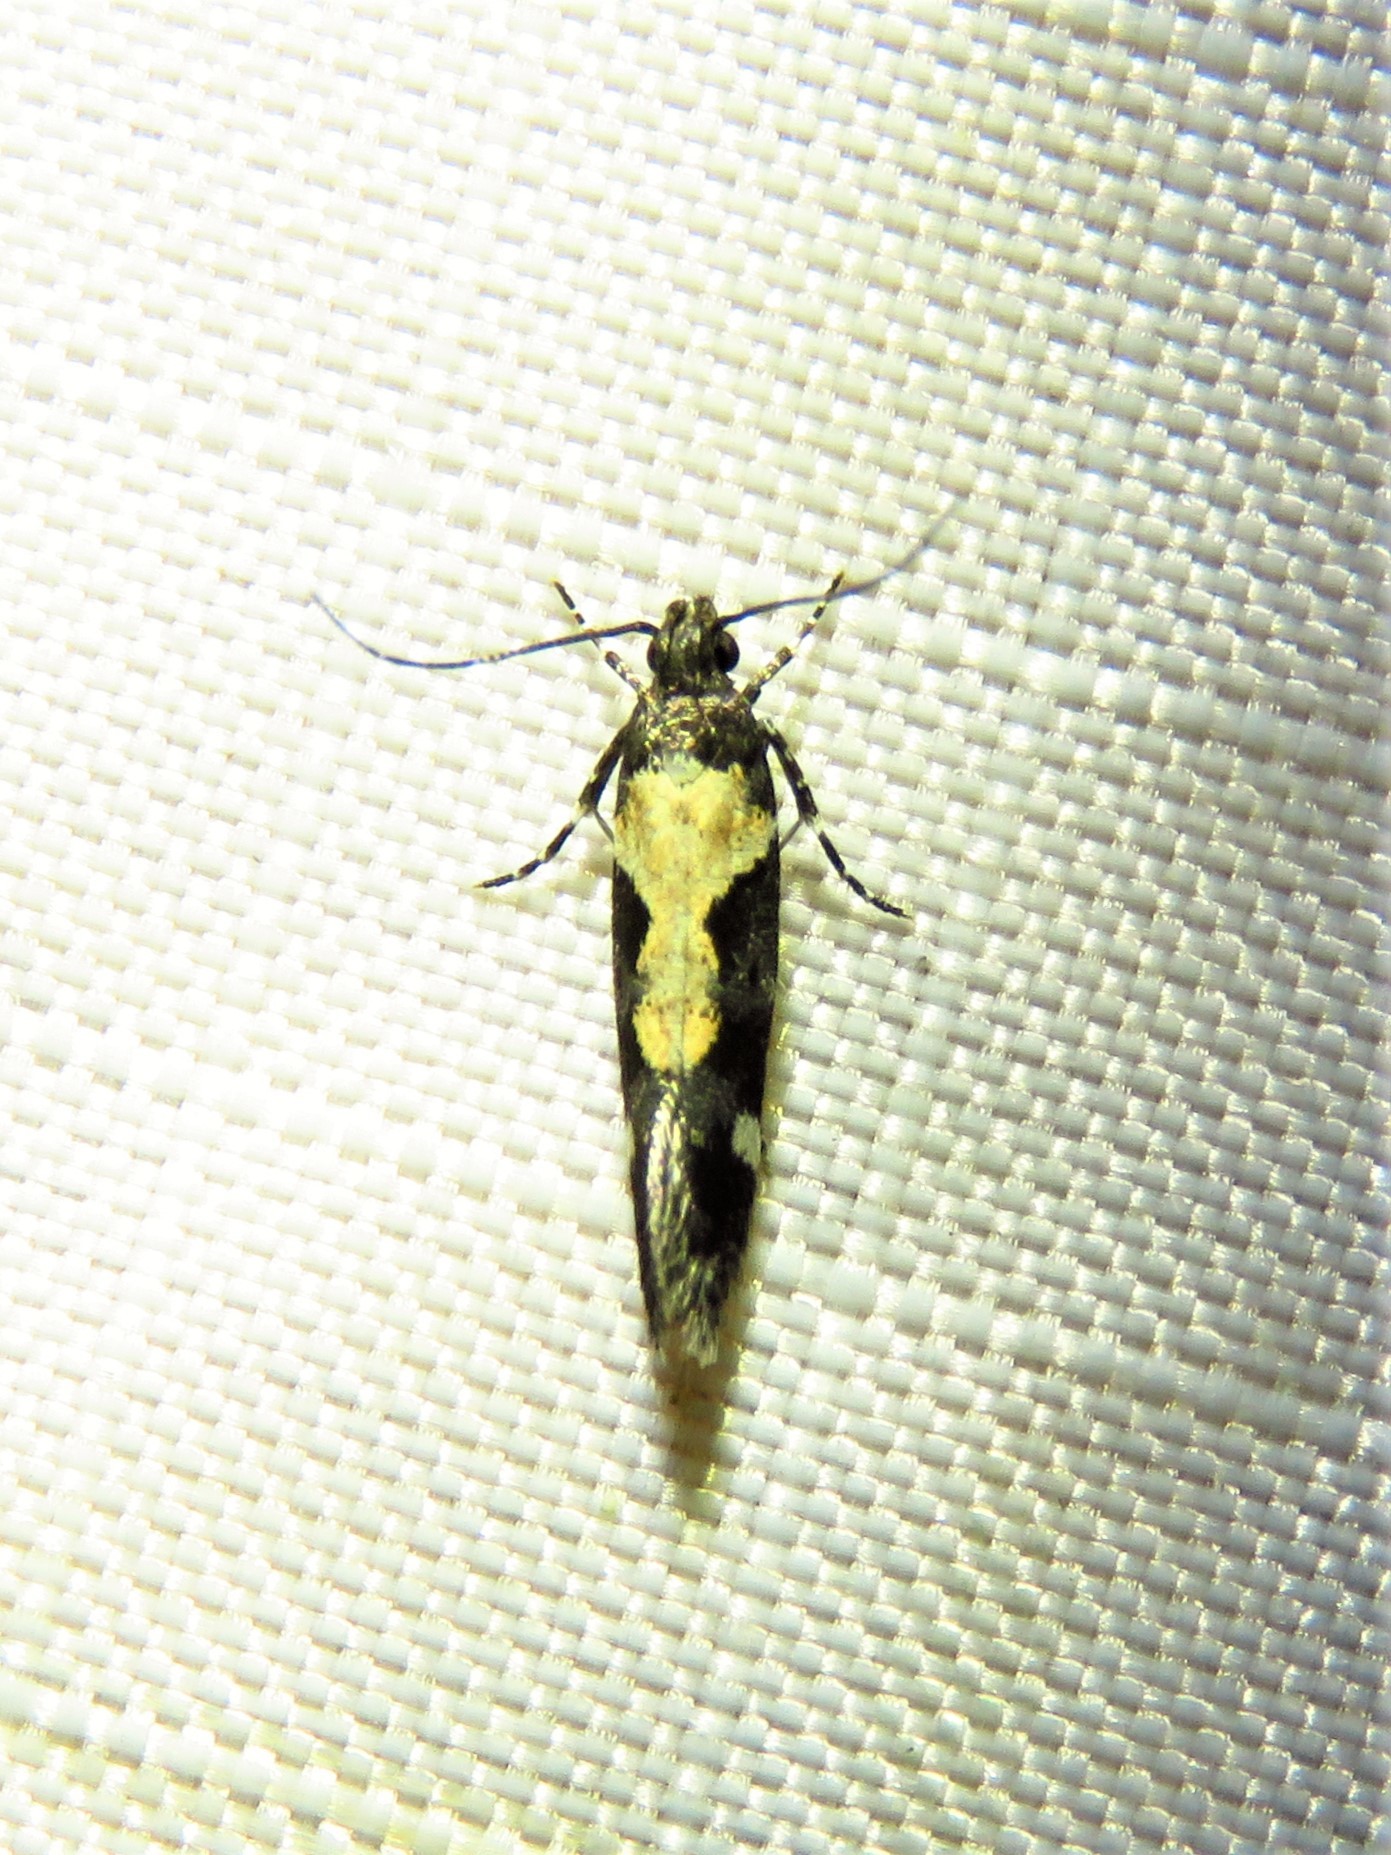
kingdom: Animalia
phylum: Arthropoda
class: Insecta
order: Lepidoptera
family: Gelechiidae
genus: Stegasta
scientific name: Stegasta bosqueella
